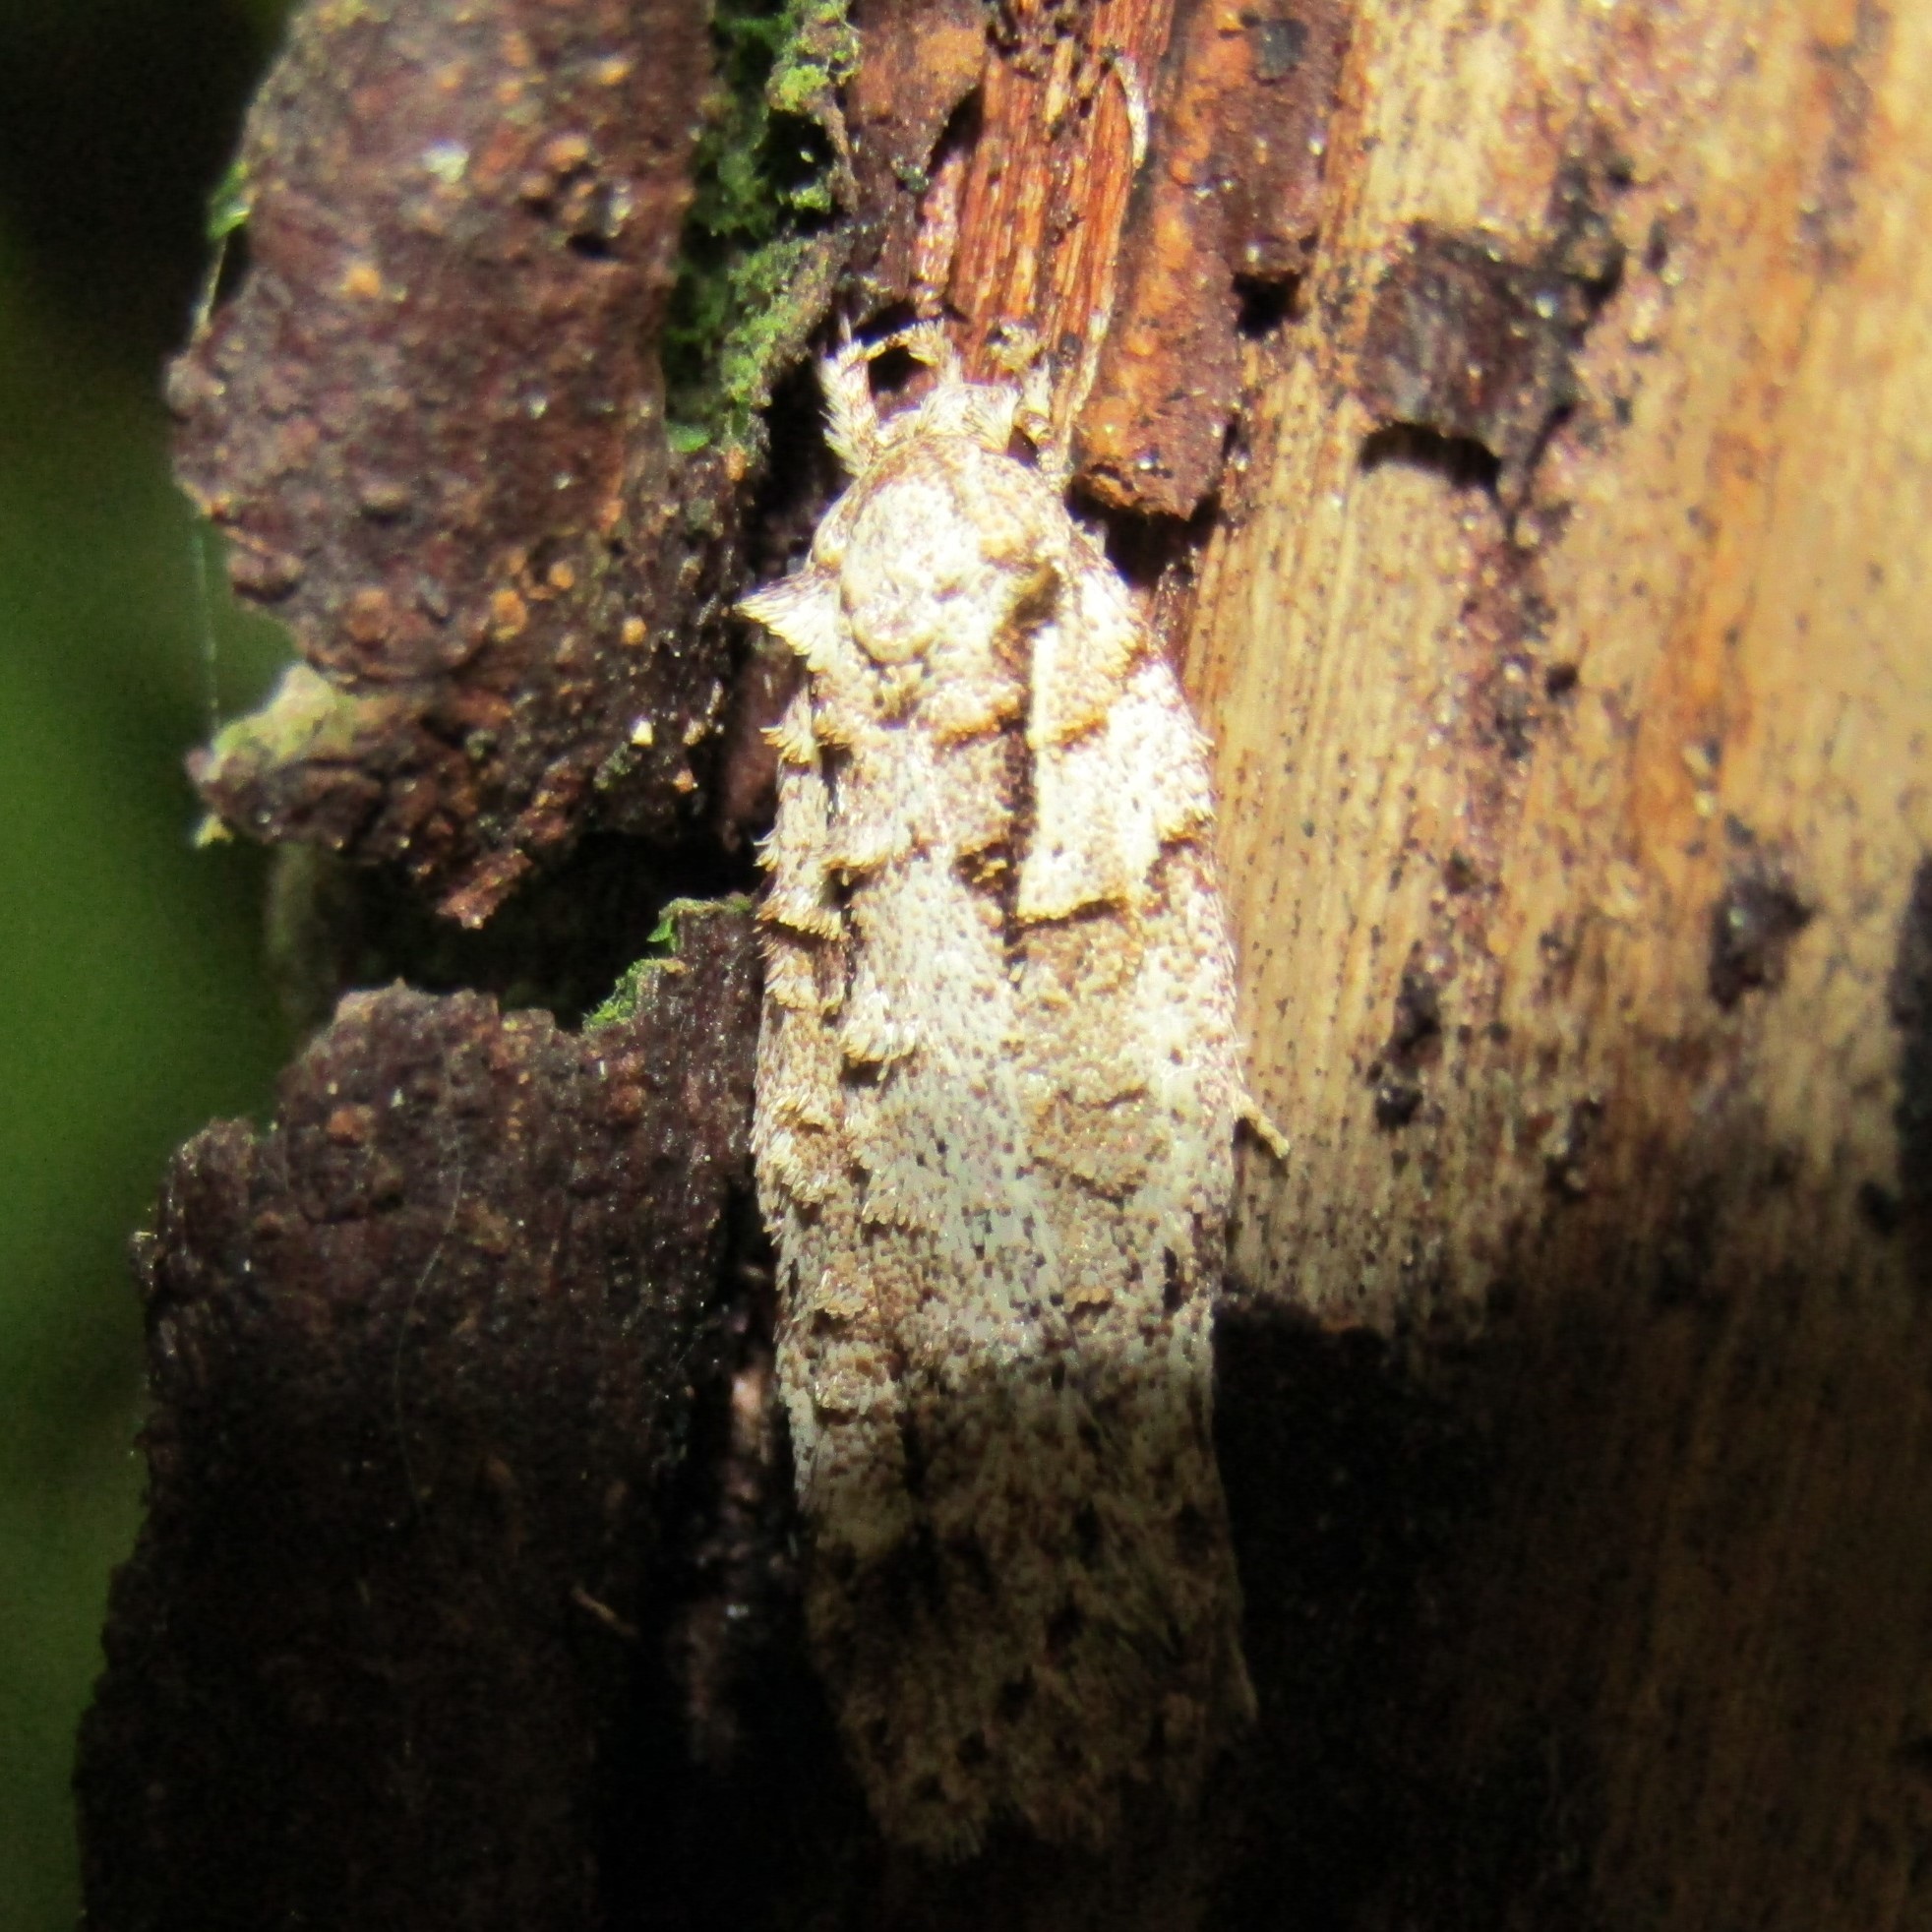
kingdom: Animalia
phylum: Arthropoda
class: Insecta
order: Lepidoptera
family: Oecophoridae
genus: Izatha
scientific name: Izatha attactella
